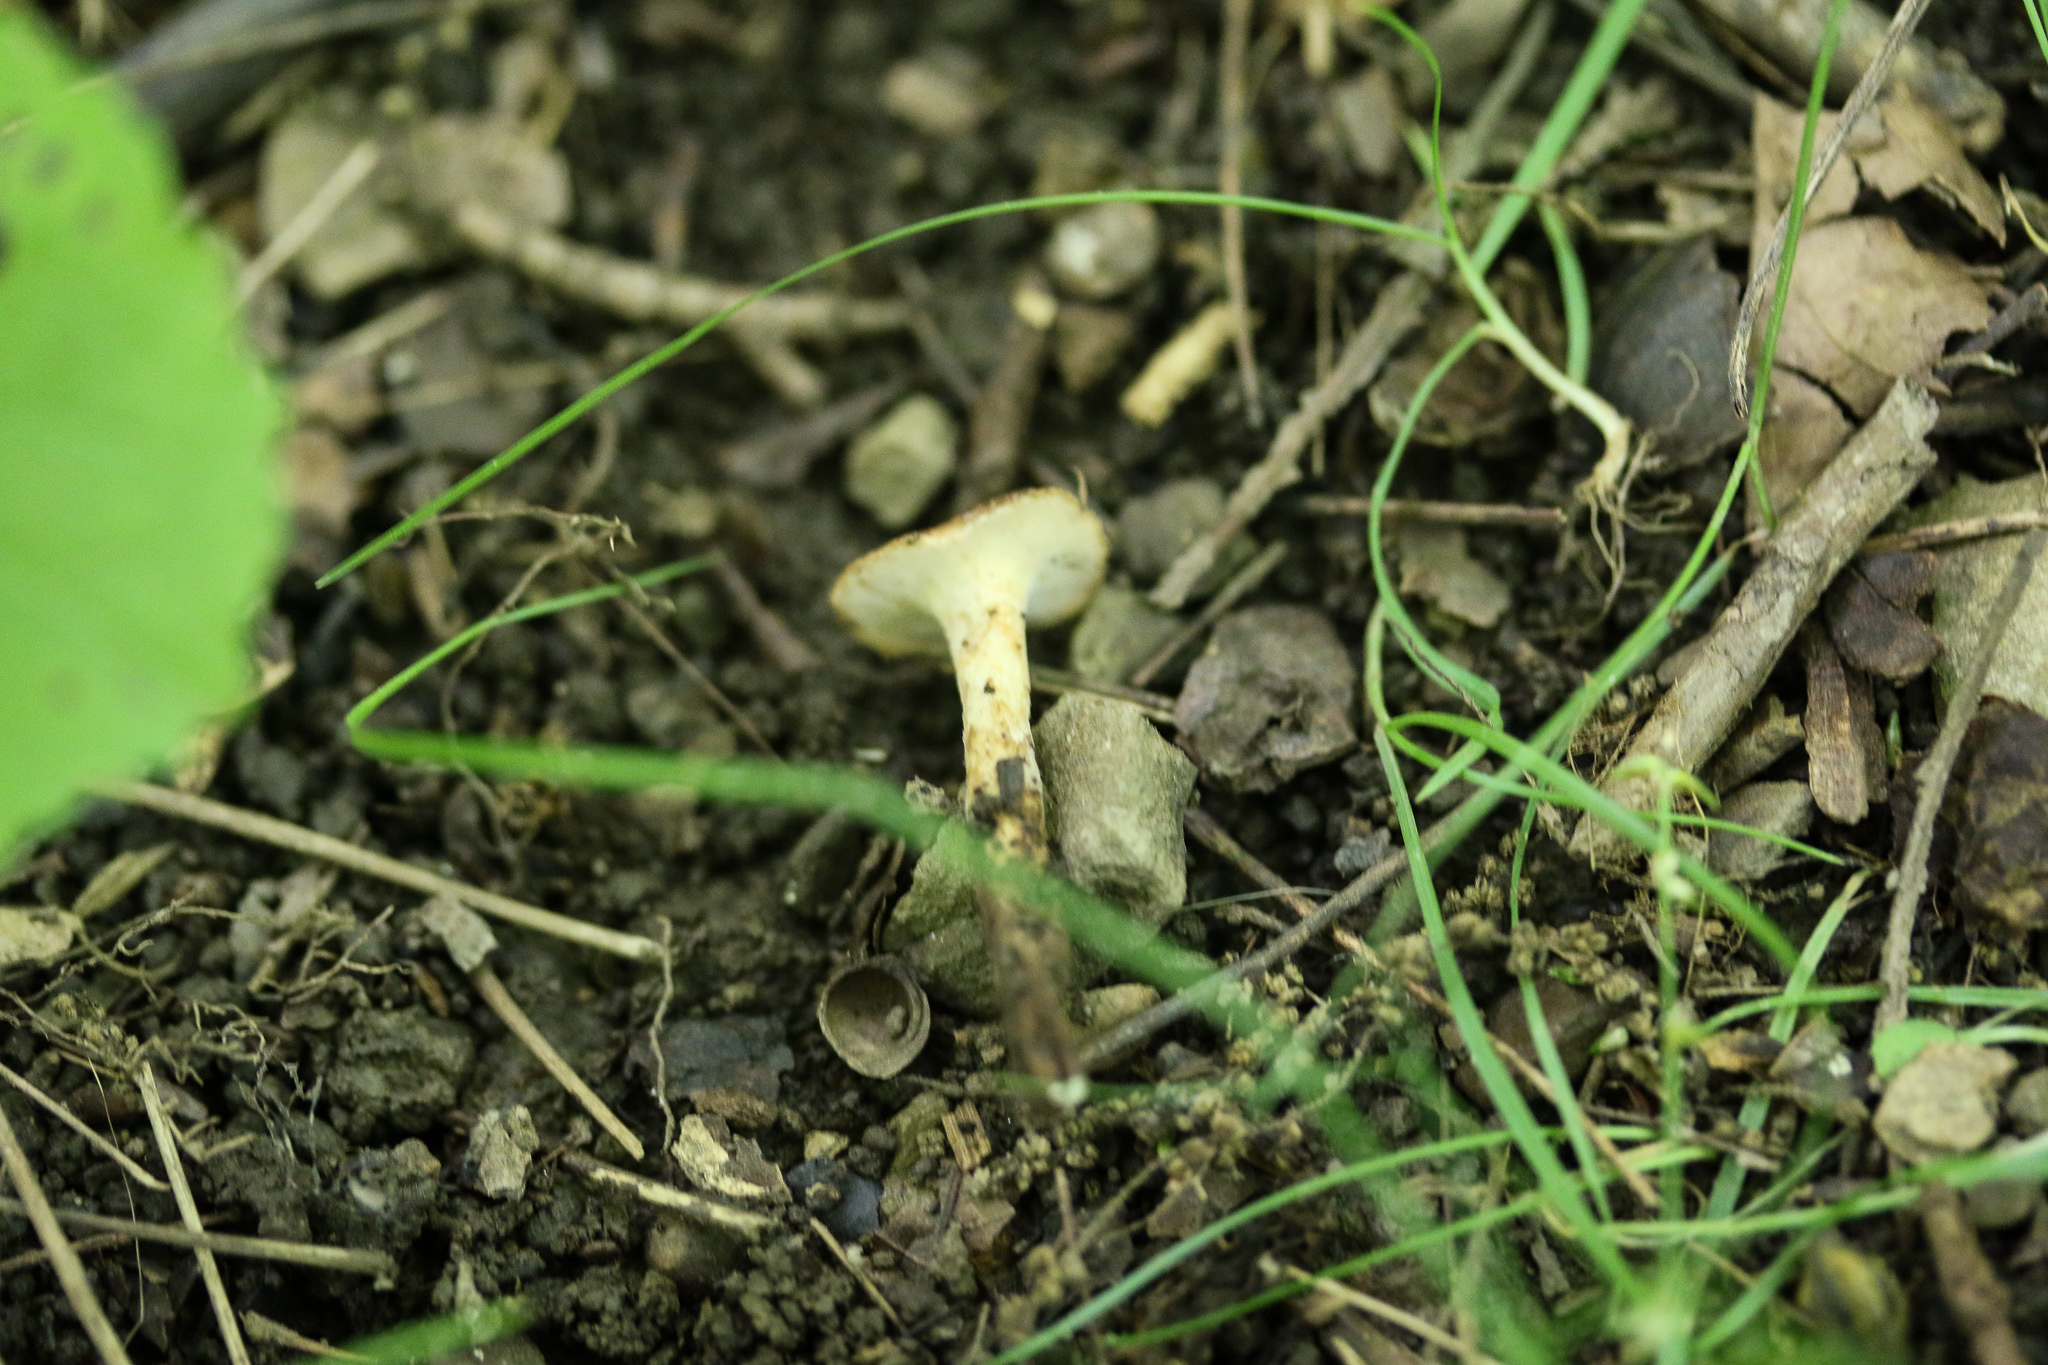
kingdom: Fungi
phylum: Basidiomycota
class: Agaricomycetes
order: Polyporales
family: Polyporaceae
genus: Polyporus
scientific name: Polyporus radicatus
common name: Rooting polypore
